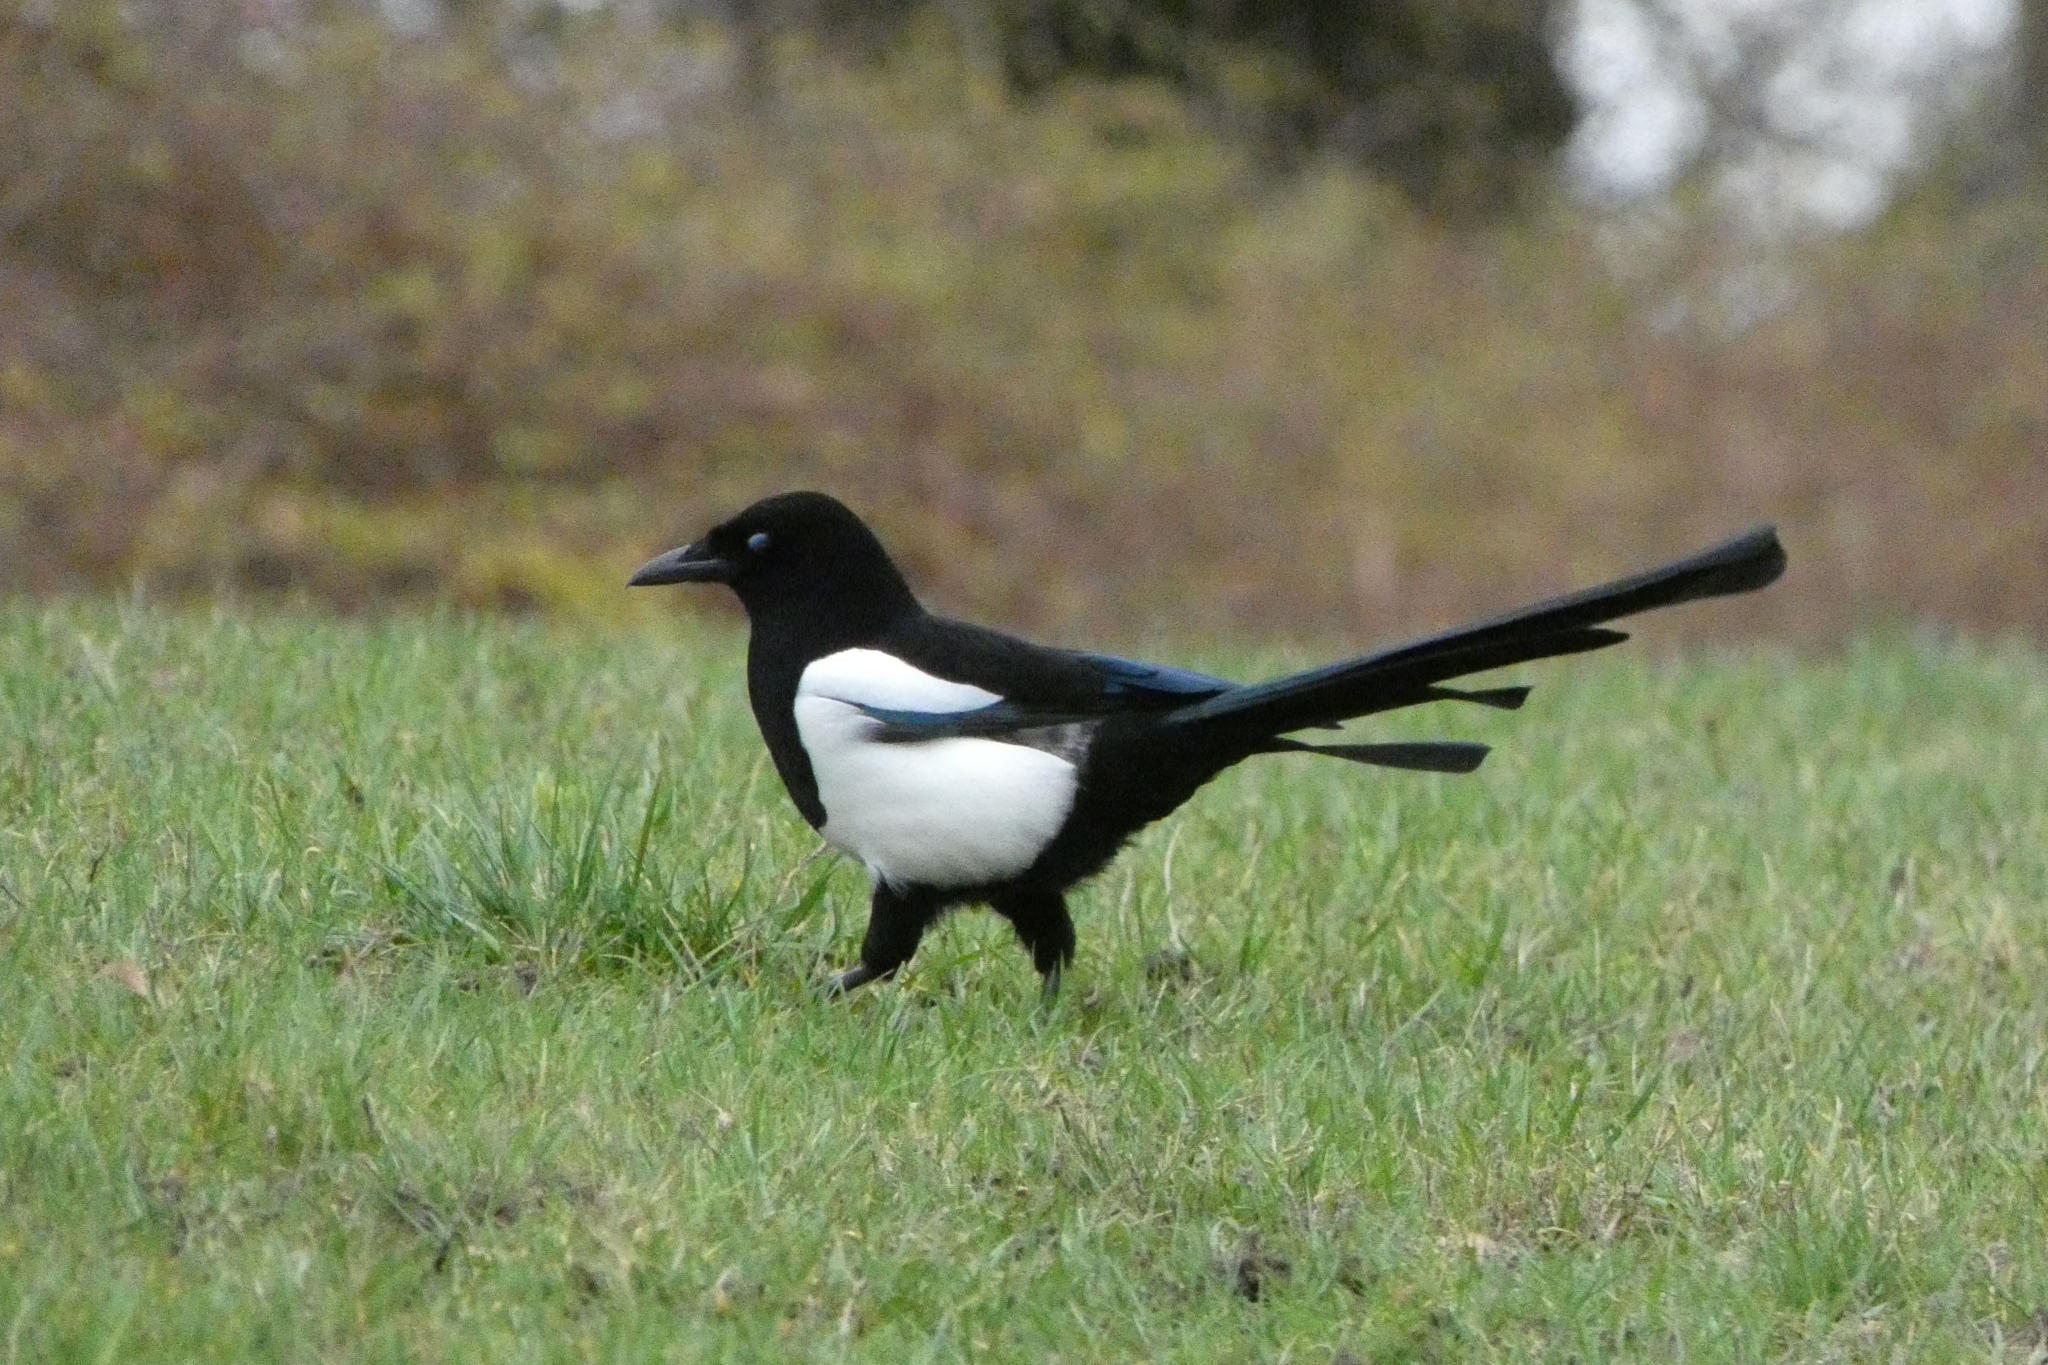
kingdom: Animalia
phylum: Chordata
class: Aves
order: Passeriformes
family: Corvidae
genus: Pica
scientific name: Pica pica
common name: Eurasian magpie
